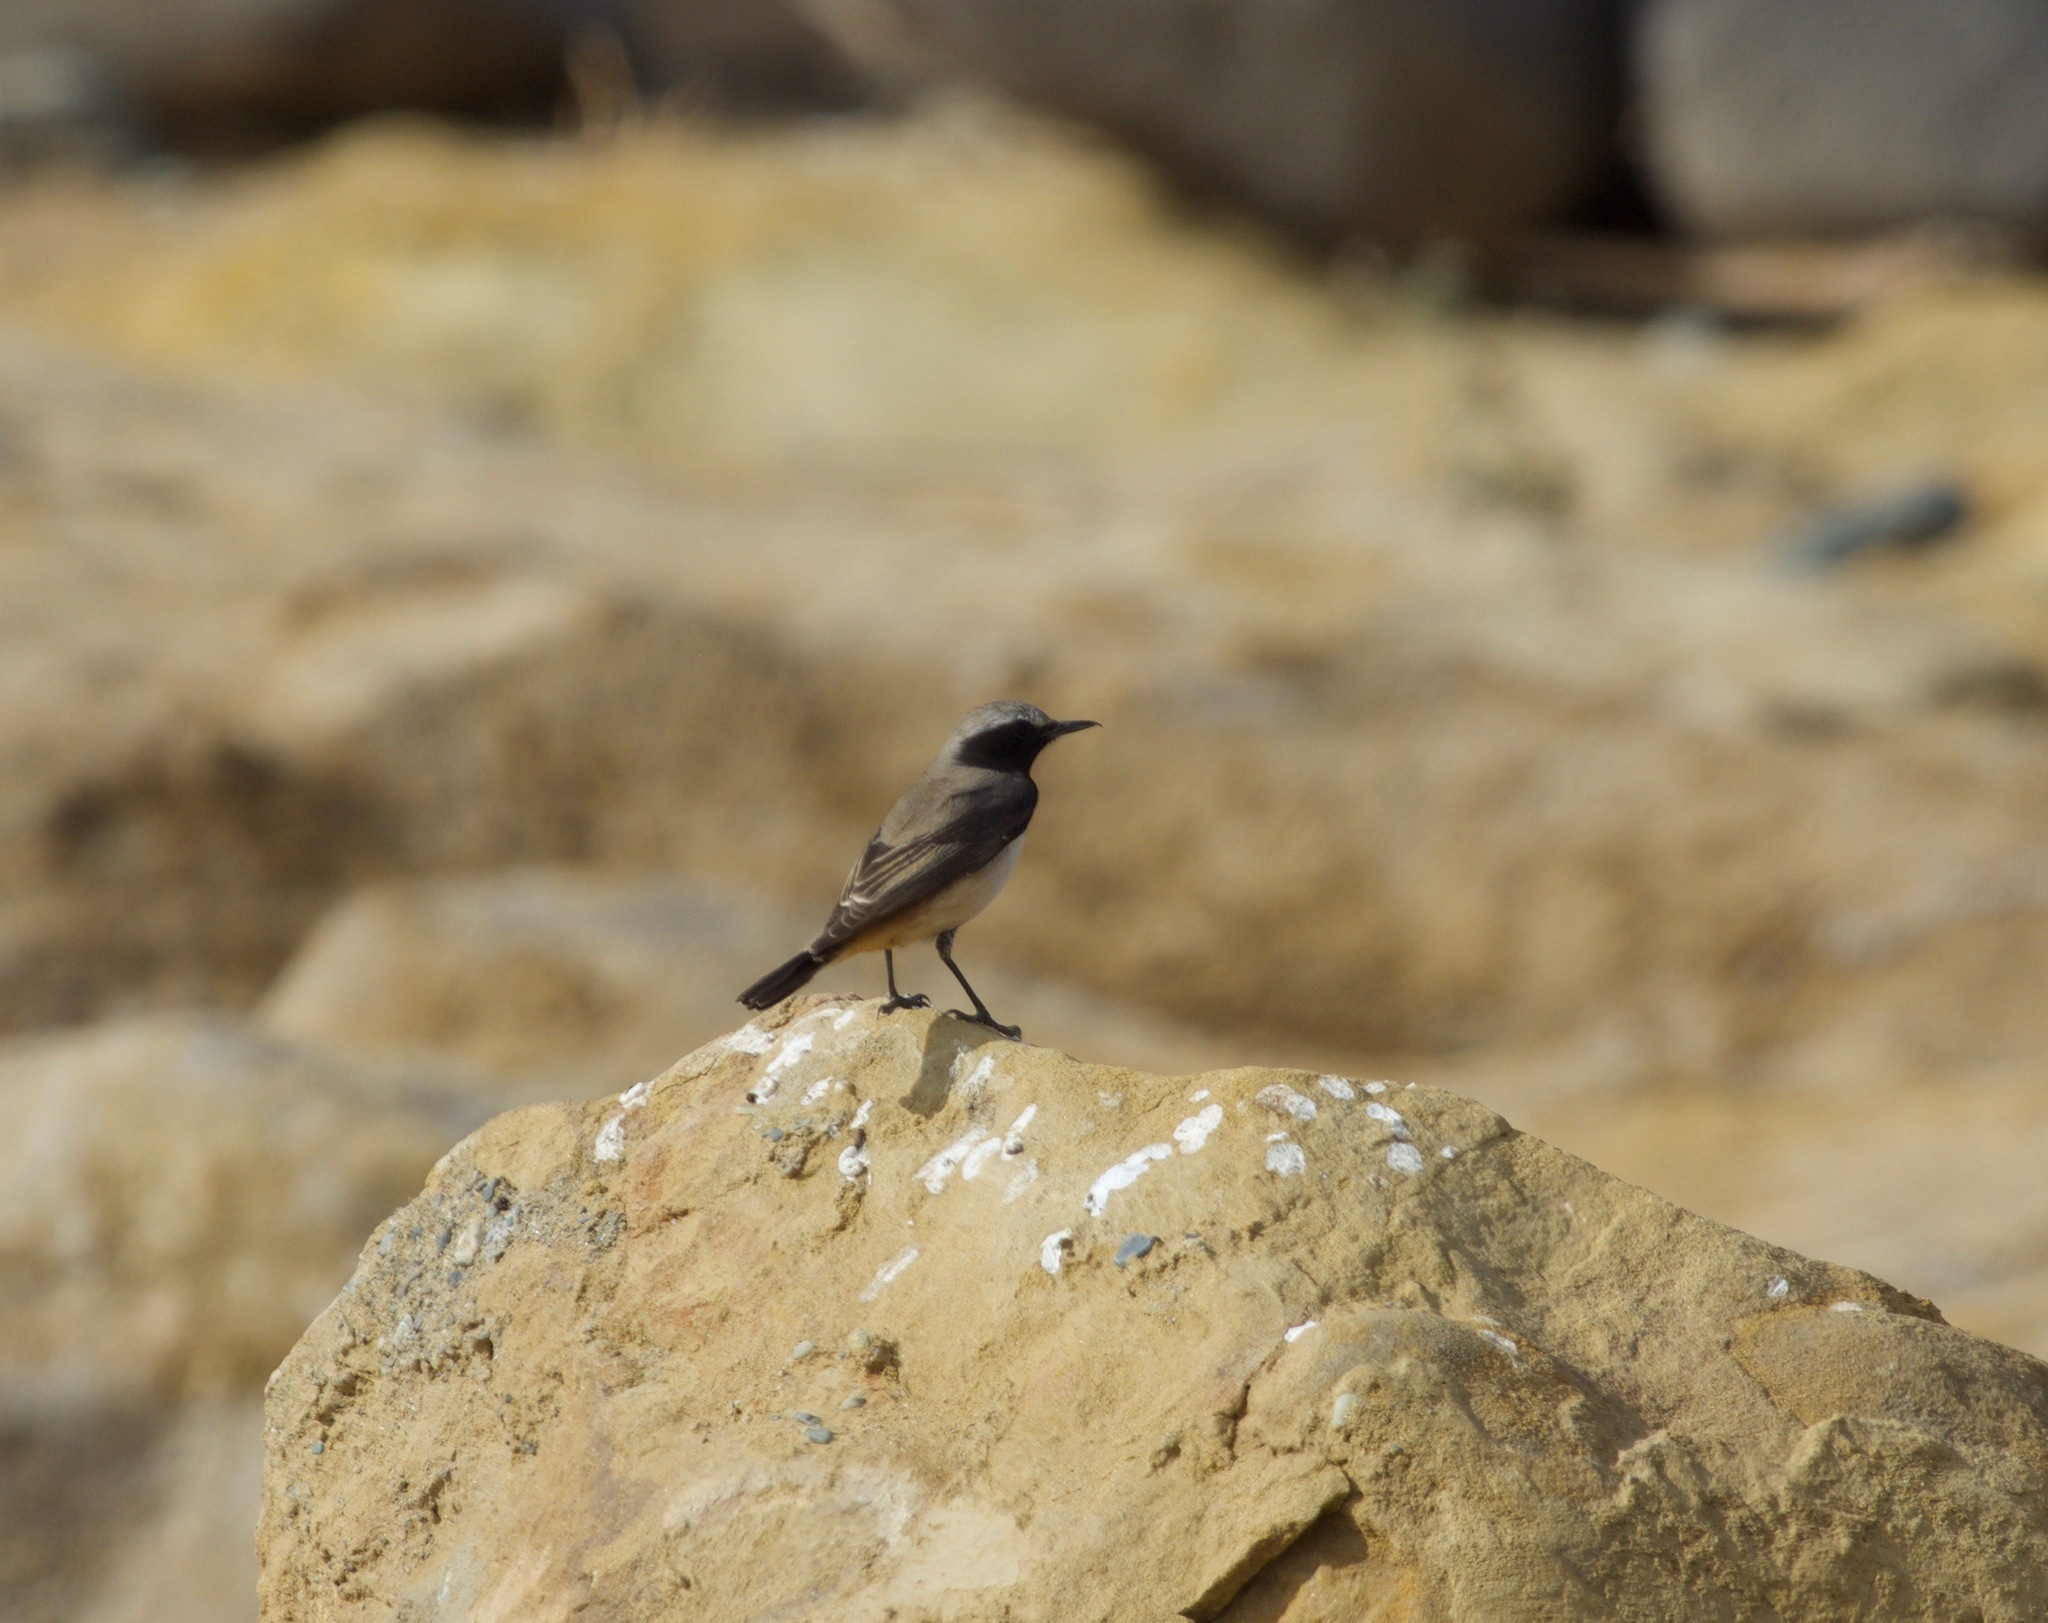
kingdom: Animalia
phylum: Chordata
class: Aves
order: Passeriformes
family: Muscicapidae
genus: Oenanthe
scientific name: Oenanthe xanthoprymna
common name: Kurdish wheatear
